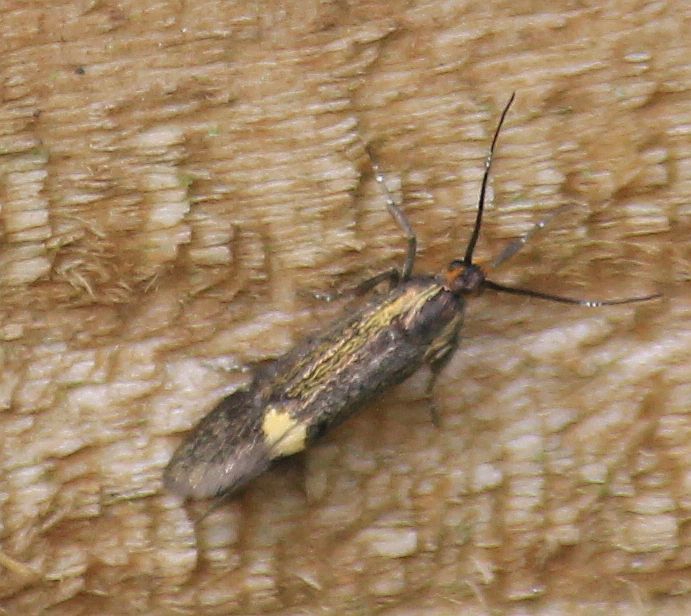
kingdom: Animalia
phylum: Arthropoda
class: Insecta
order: Lepidoptera
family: Oecophoridae
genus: Dafa
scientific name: Dafa Esperia sulphurella
